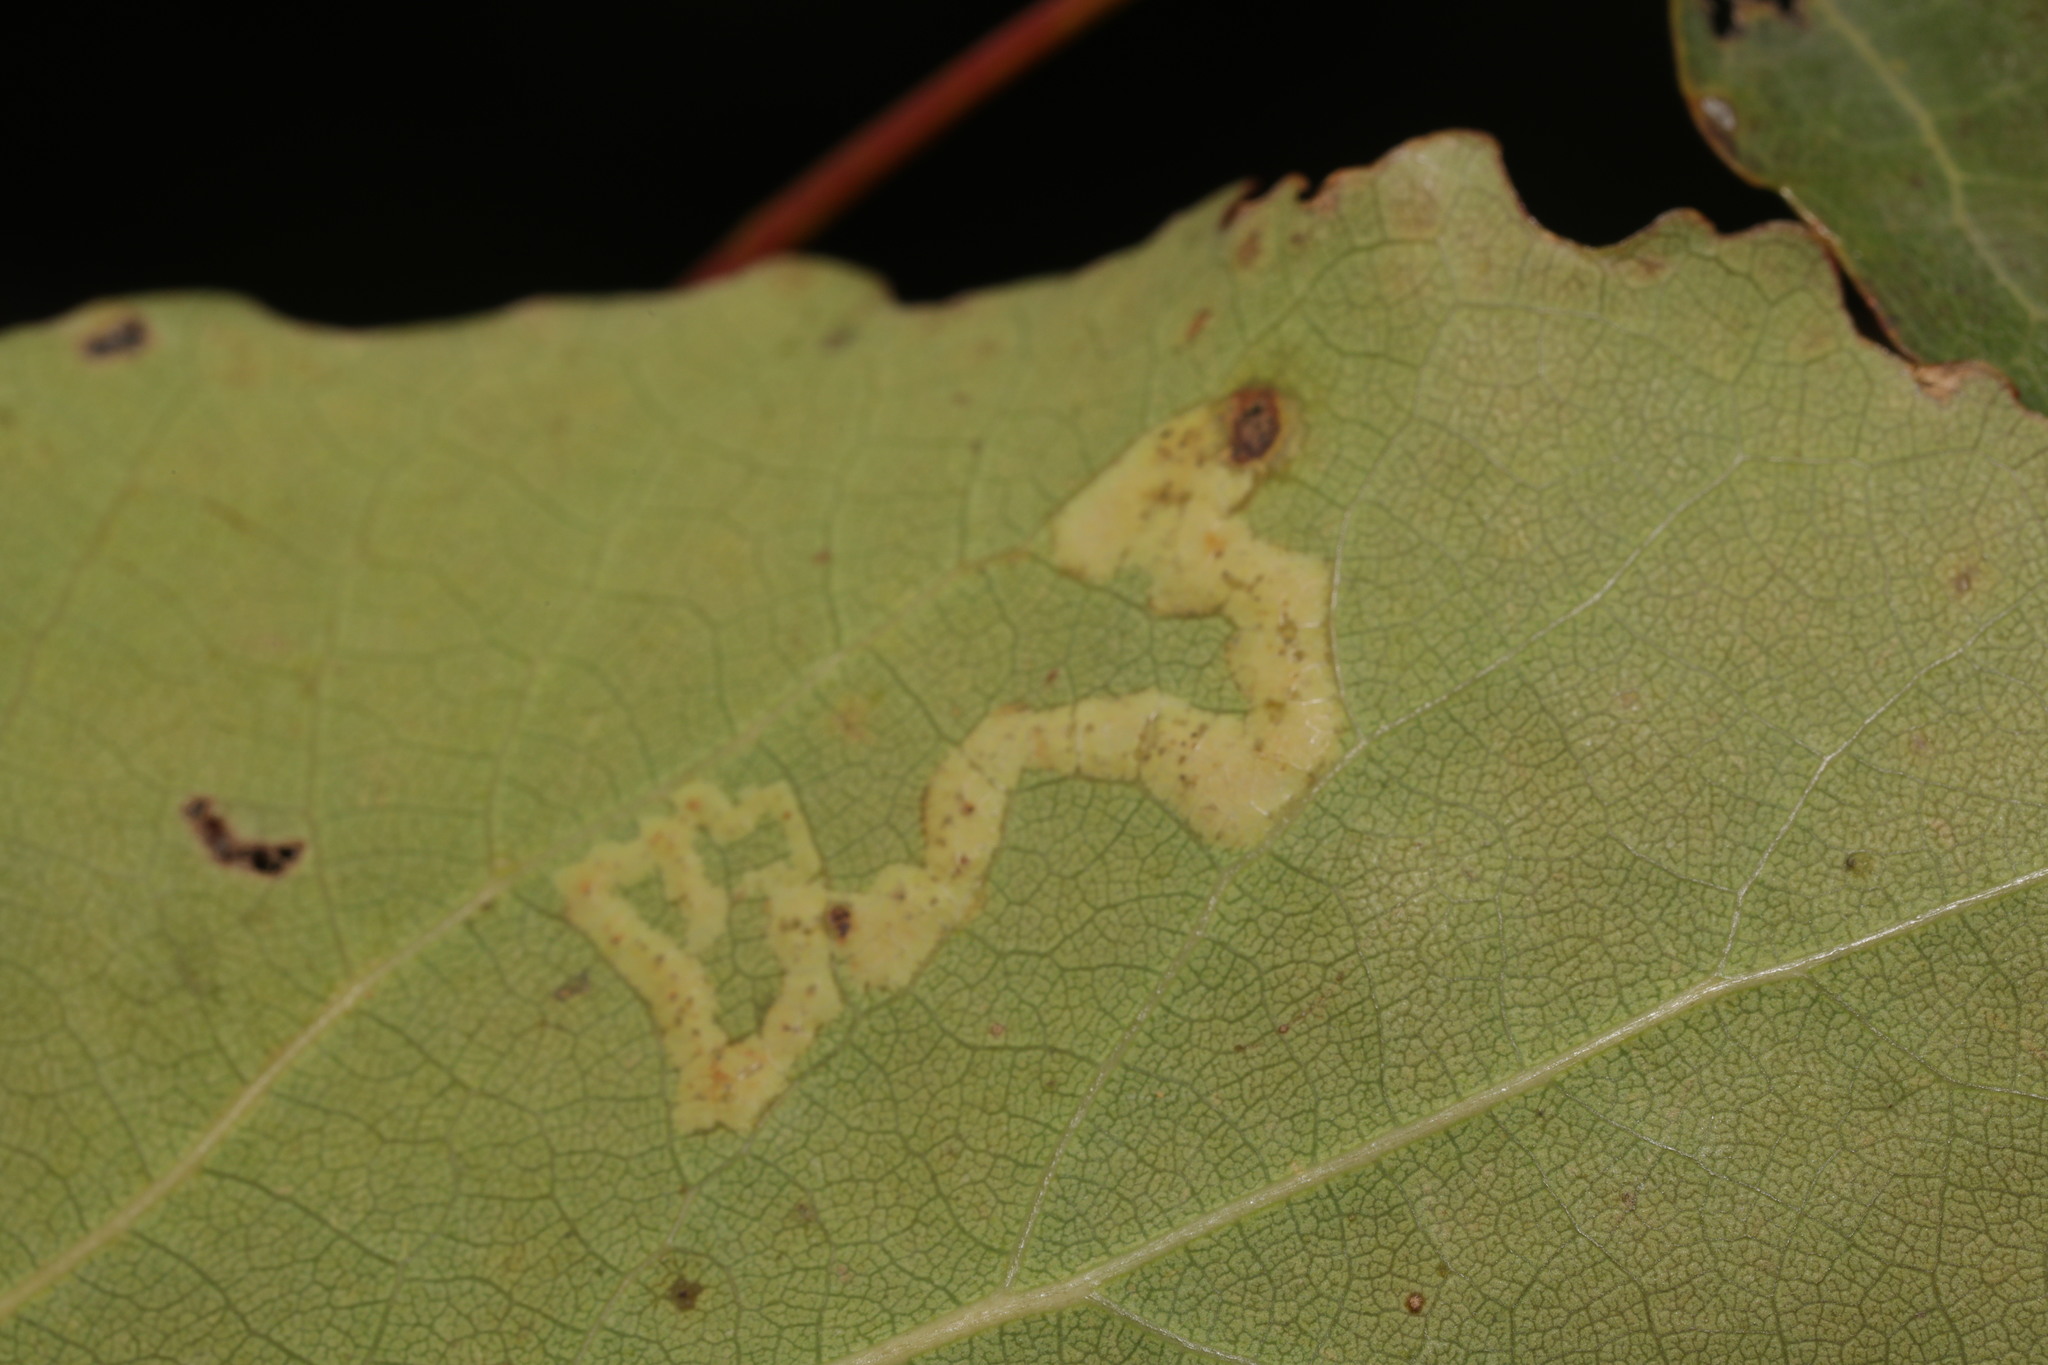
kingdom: Animalia
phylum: Arthropoda
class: Insecta
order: Diptera
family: Agromyzidae
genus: Aulagromyza
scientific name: Aulagromyza tremulae
